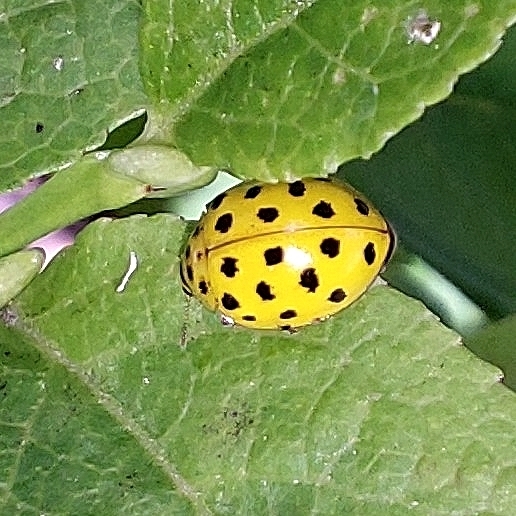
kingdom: Animalia
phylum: Arthropoda
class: Insecta
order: Coleoptera
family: Coccinellidae
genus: Psyllobora
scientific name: Psyllobora vigintiduopunctata
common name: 22-spot ladybird
